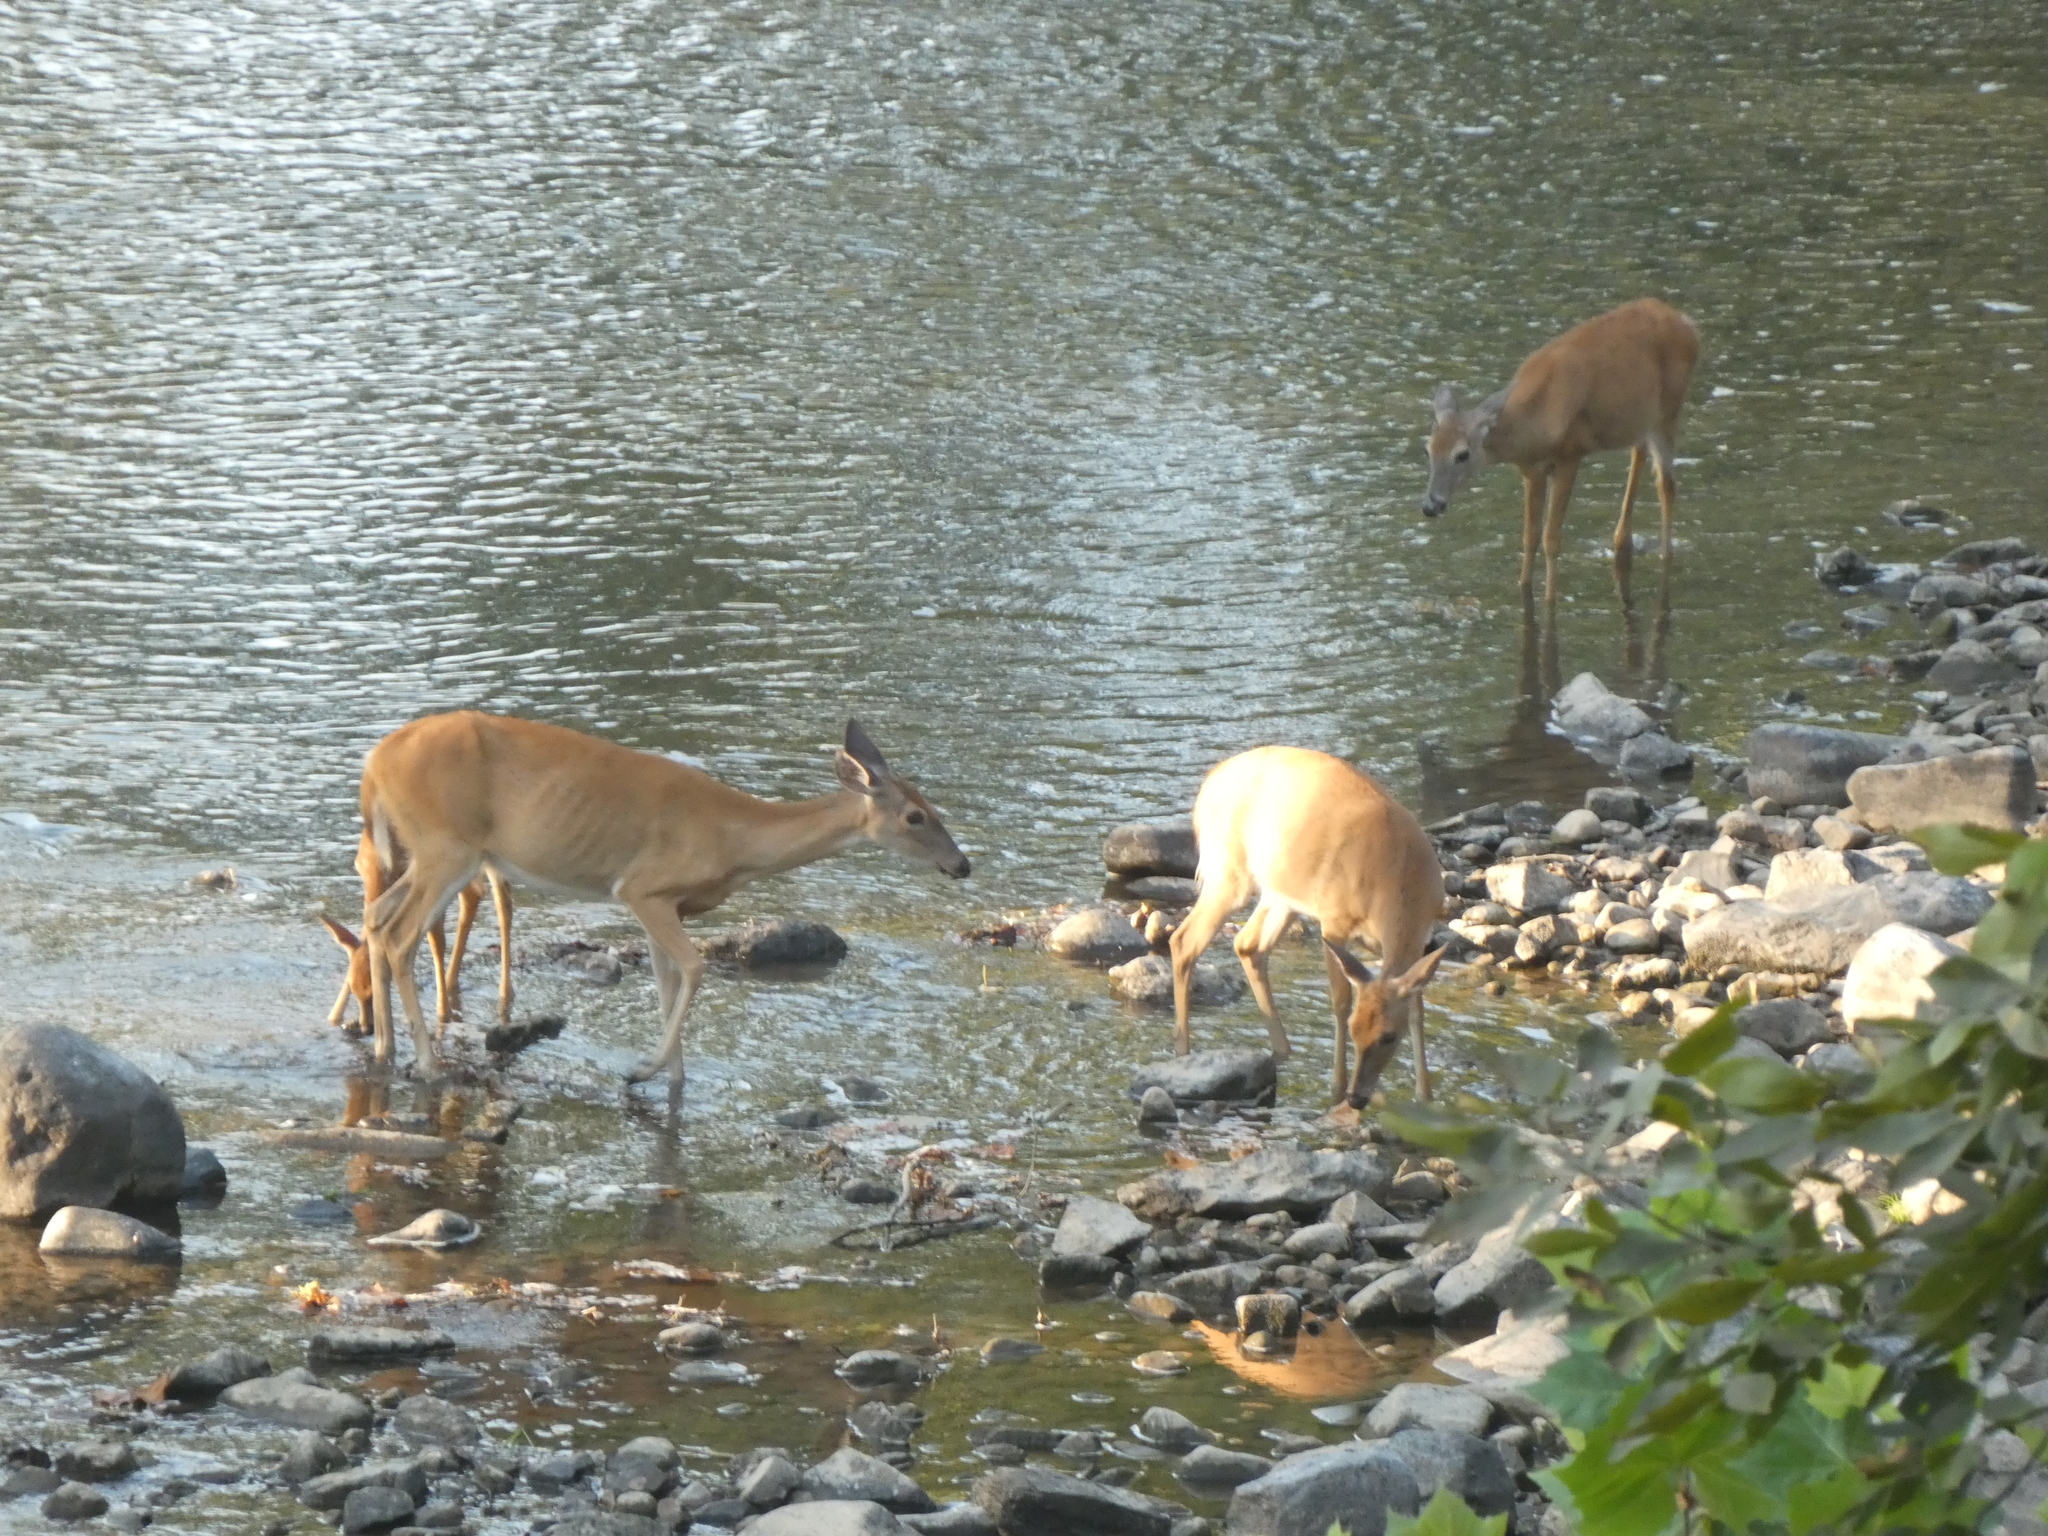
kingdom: Animalia
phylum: Chordata
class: Mammalia
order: Artiodactyla
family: Cervidae
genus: Odocoileus
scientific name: Odocoileus virginianus
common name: White-tailed deer
